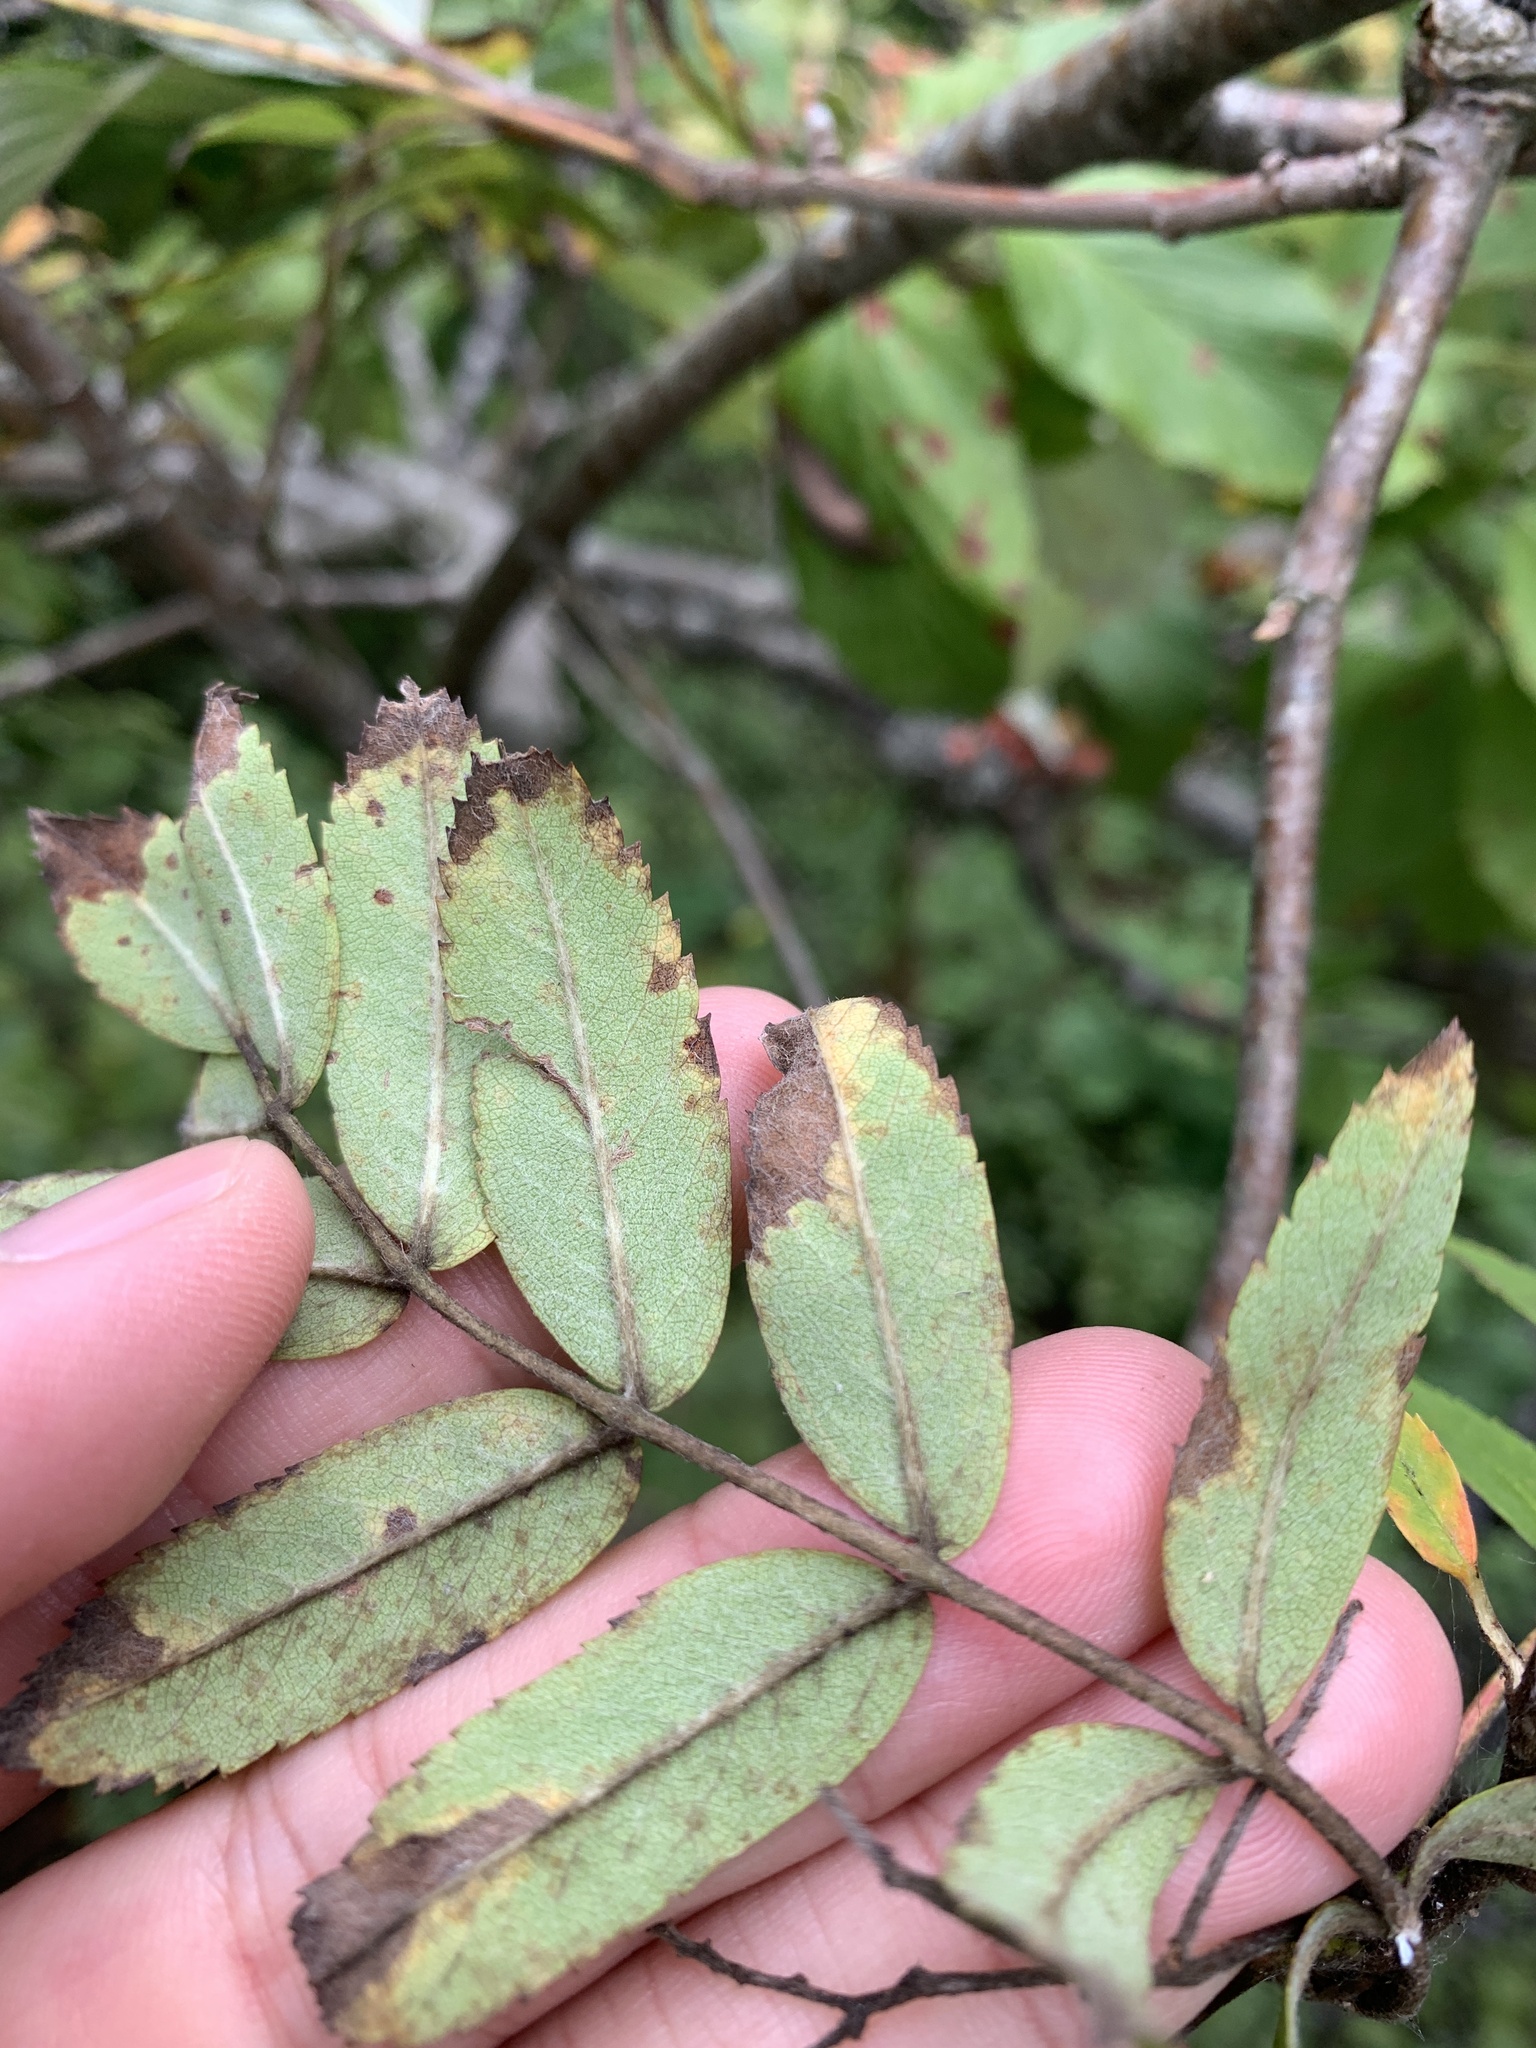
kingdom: Plantae
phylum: Tracheophyta
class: Magnoliopsida
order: Rosales
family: Rosaceae
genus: Sorbus
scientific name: Sorbus aucuparia
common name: Rowan
